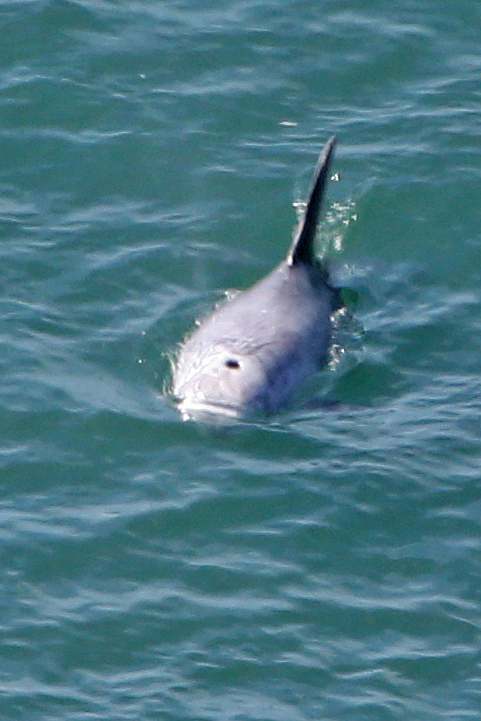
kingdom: Animalia
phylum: Chordata
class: Mammalia
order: Cetacea
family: Delphinidae
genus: Grampus
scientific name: Grampus griseus
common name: Risso's dolphin
